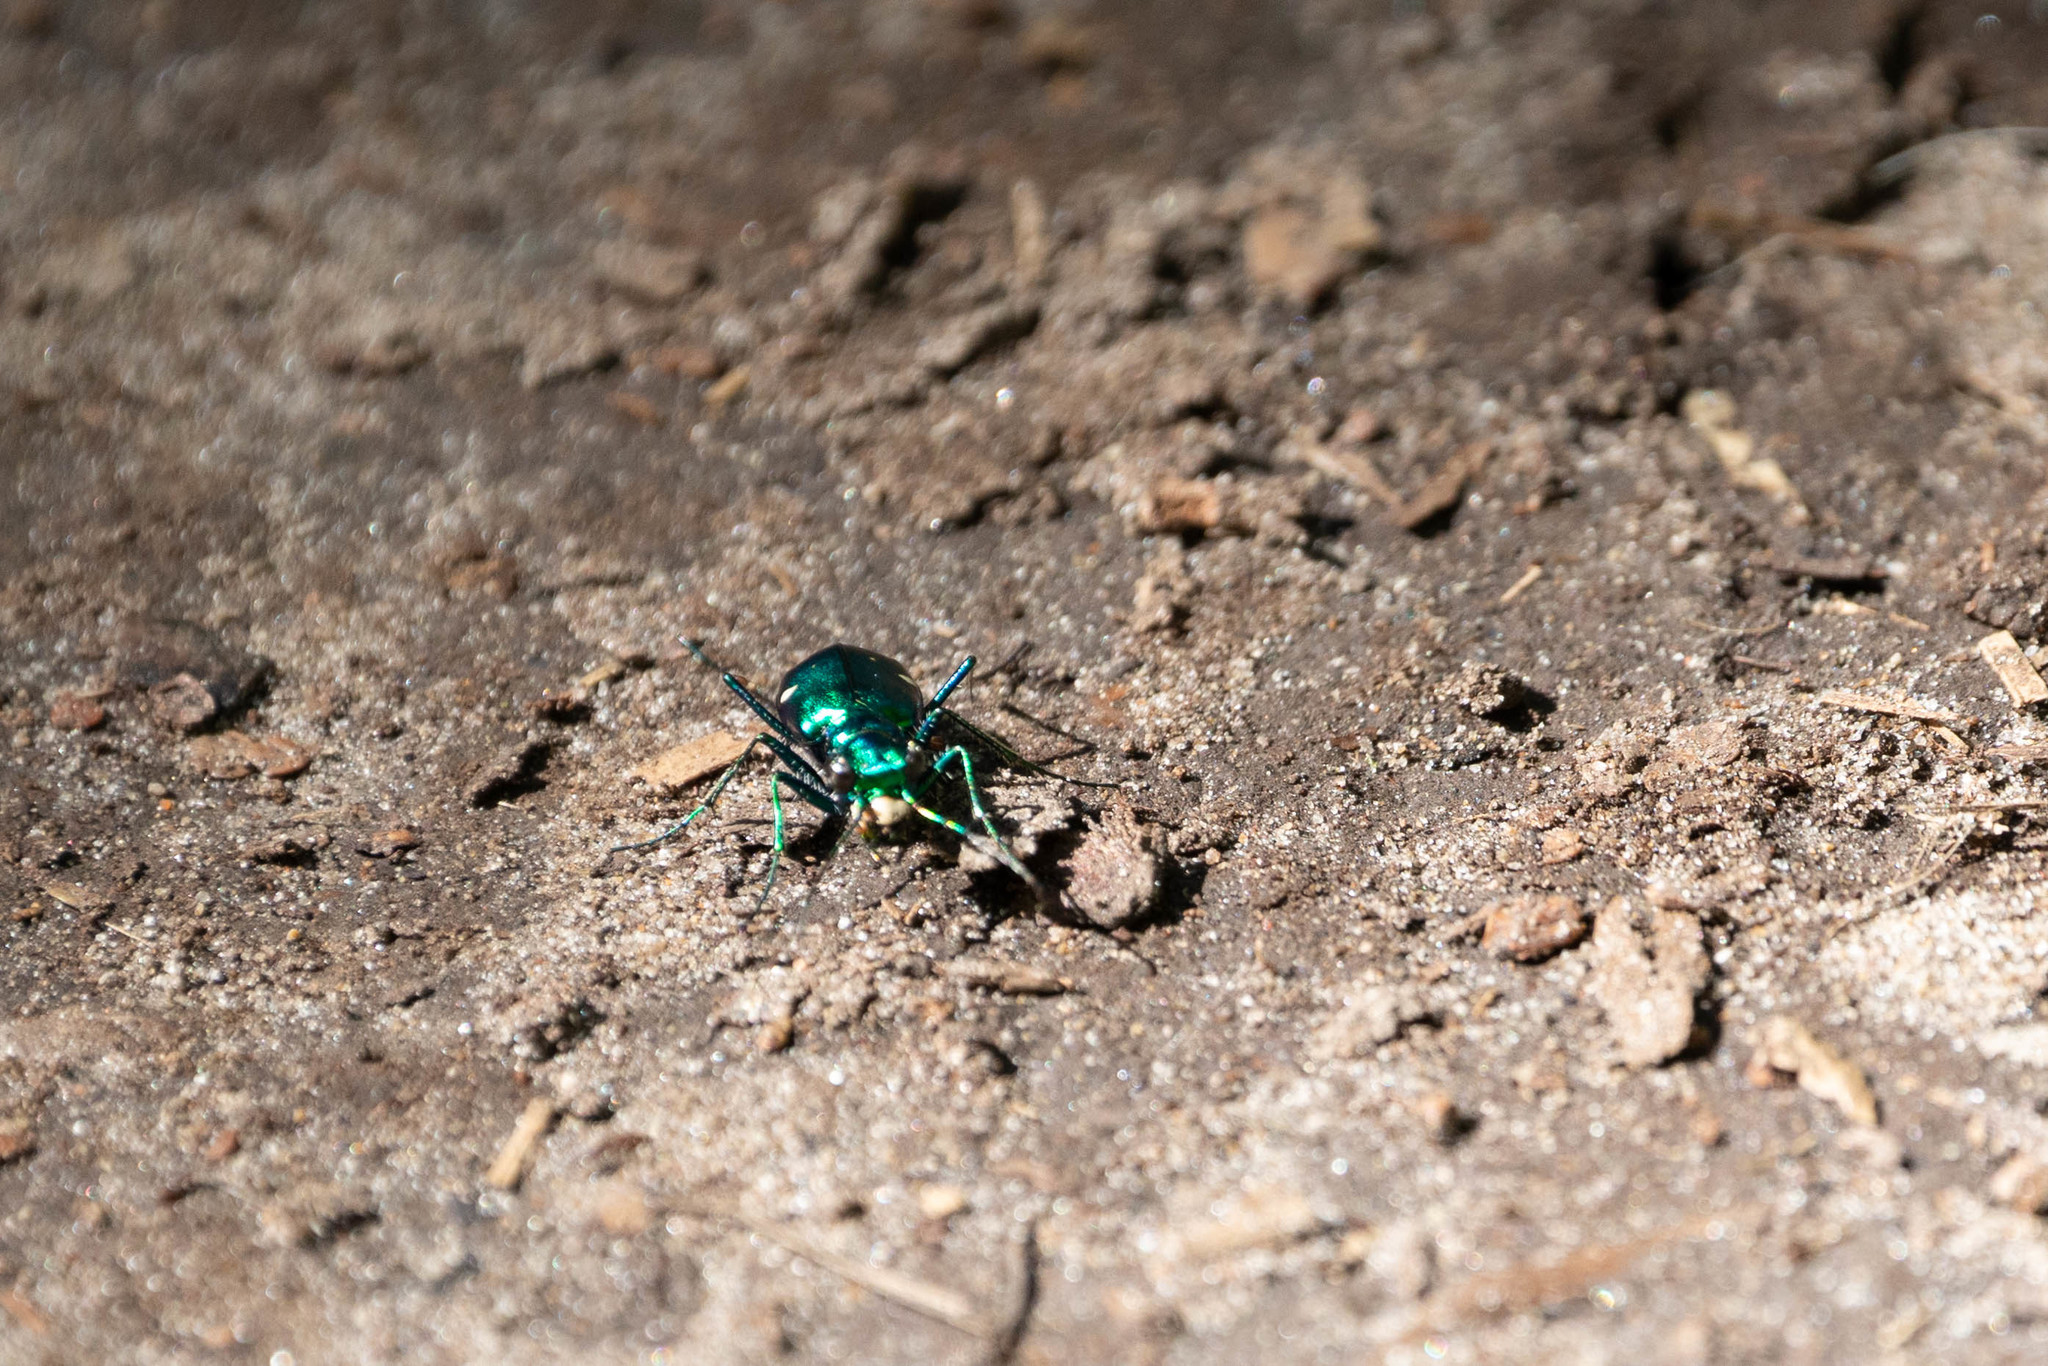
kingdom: Animalia
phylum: Arthropoda
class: Insecta
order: Coleoptera
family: Carabidae
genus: Cicindela
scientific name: Cicindela sexguttata
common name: Six-spotted tiger beetle
